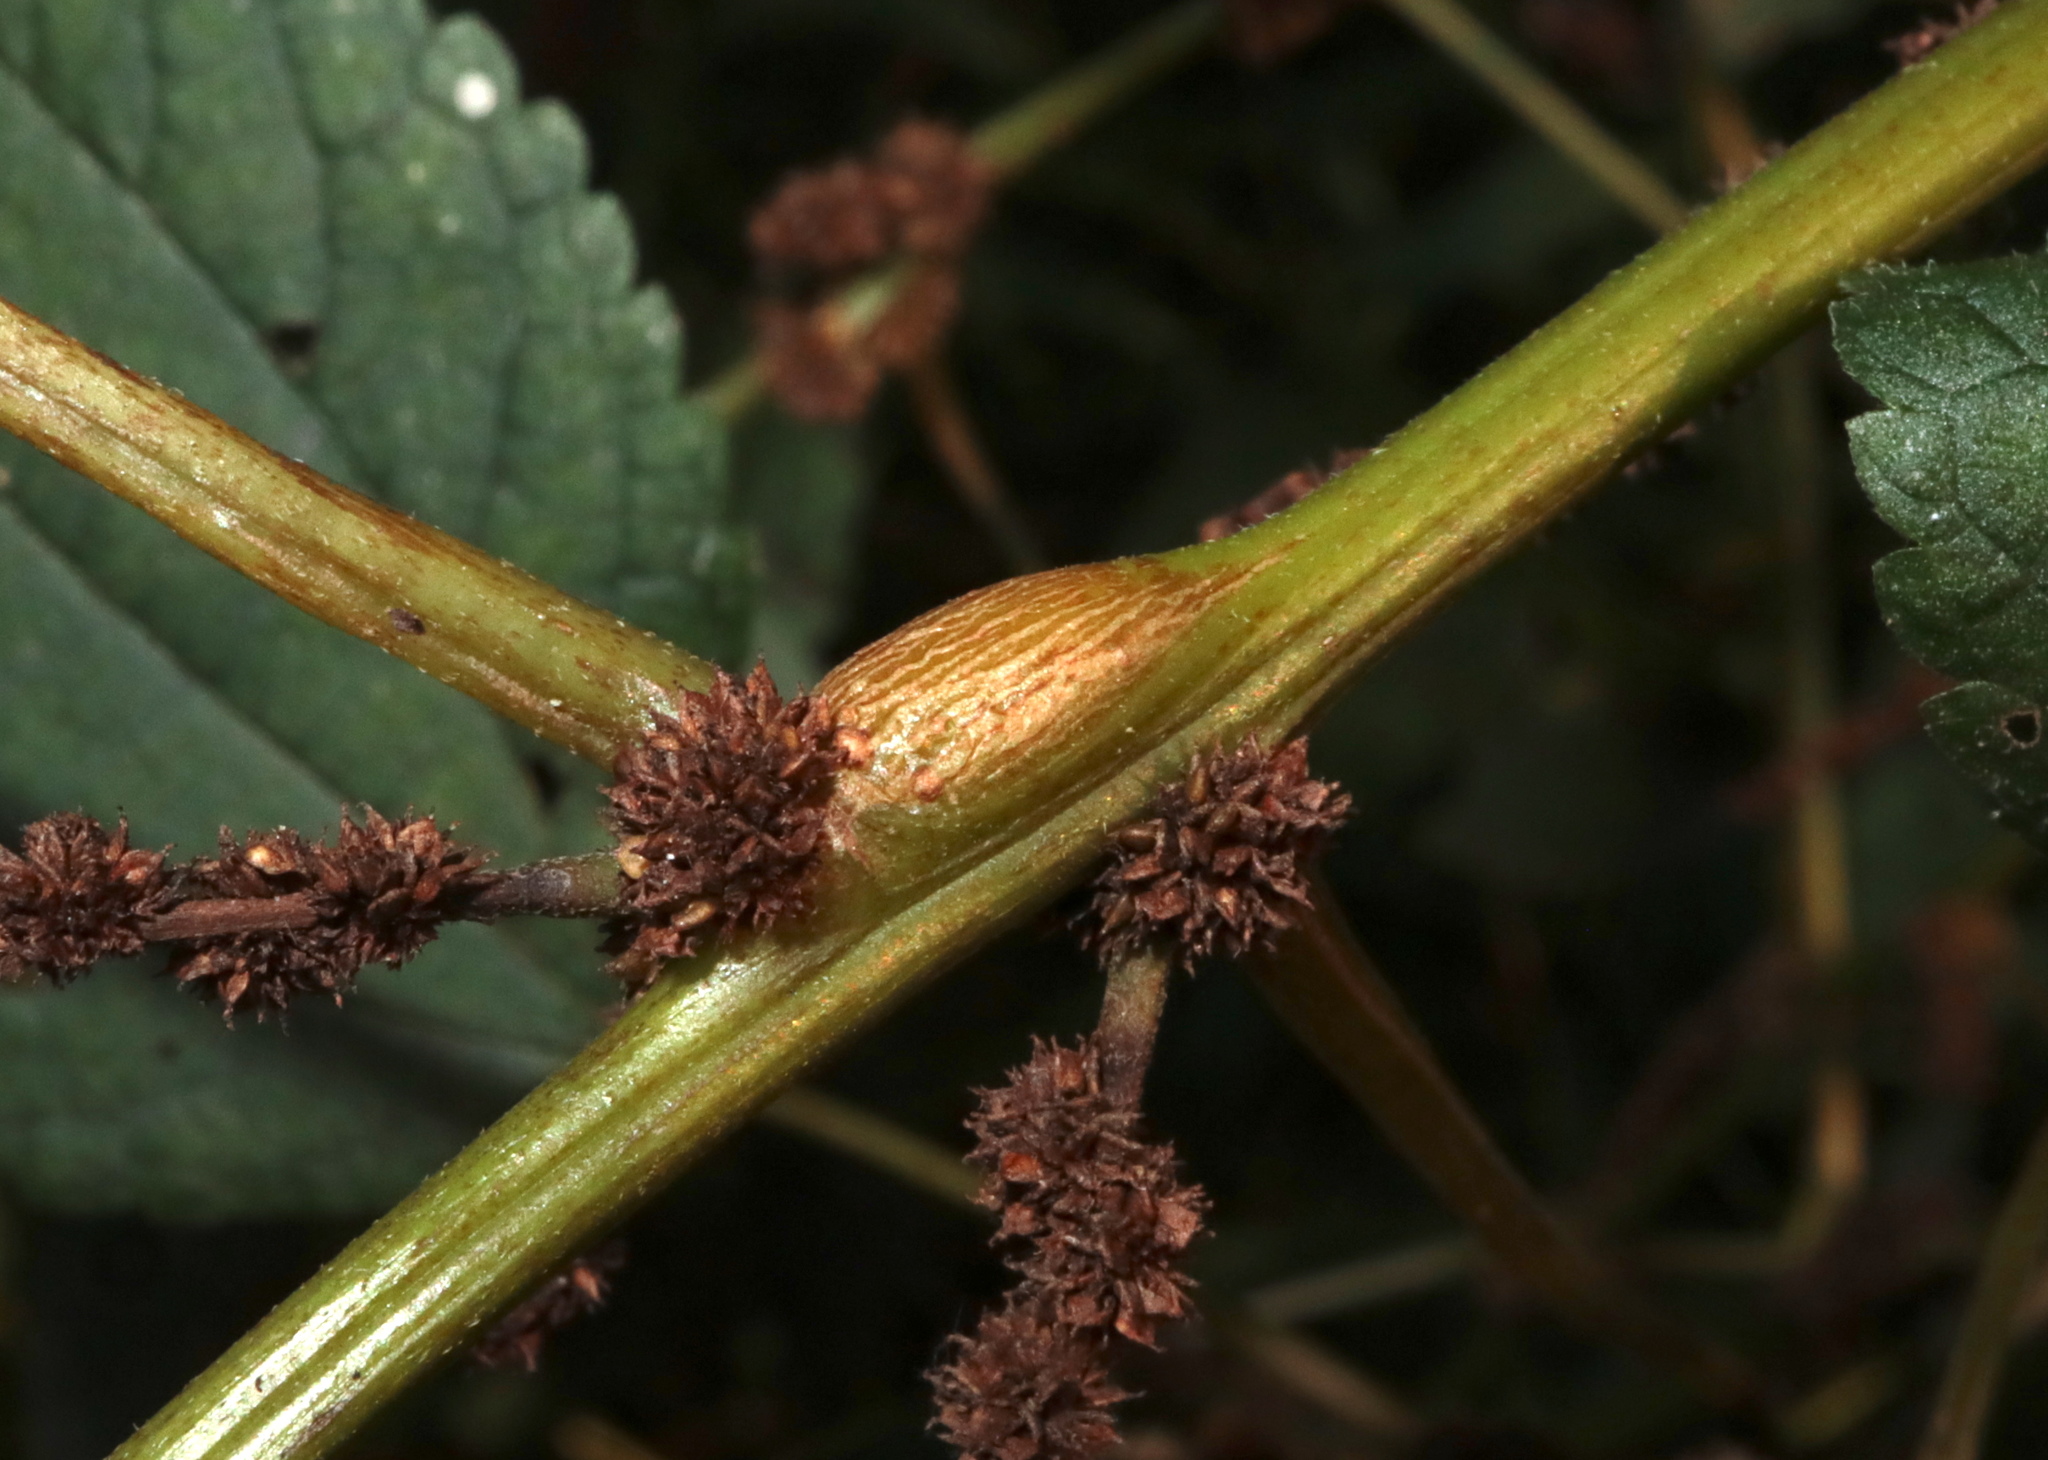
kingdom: Animalia
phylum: Arthropoda
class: Insecta
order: Diptera
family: Cecidomyiidae
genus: Neolasioptera
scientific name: Neolasioptera boehmeriae
